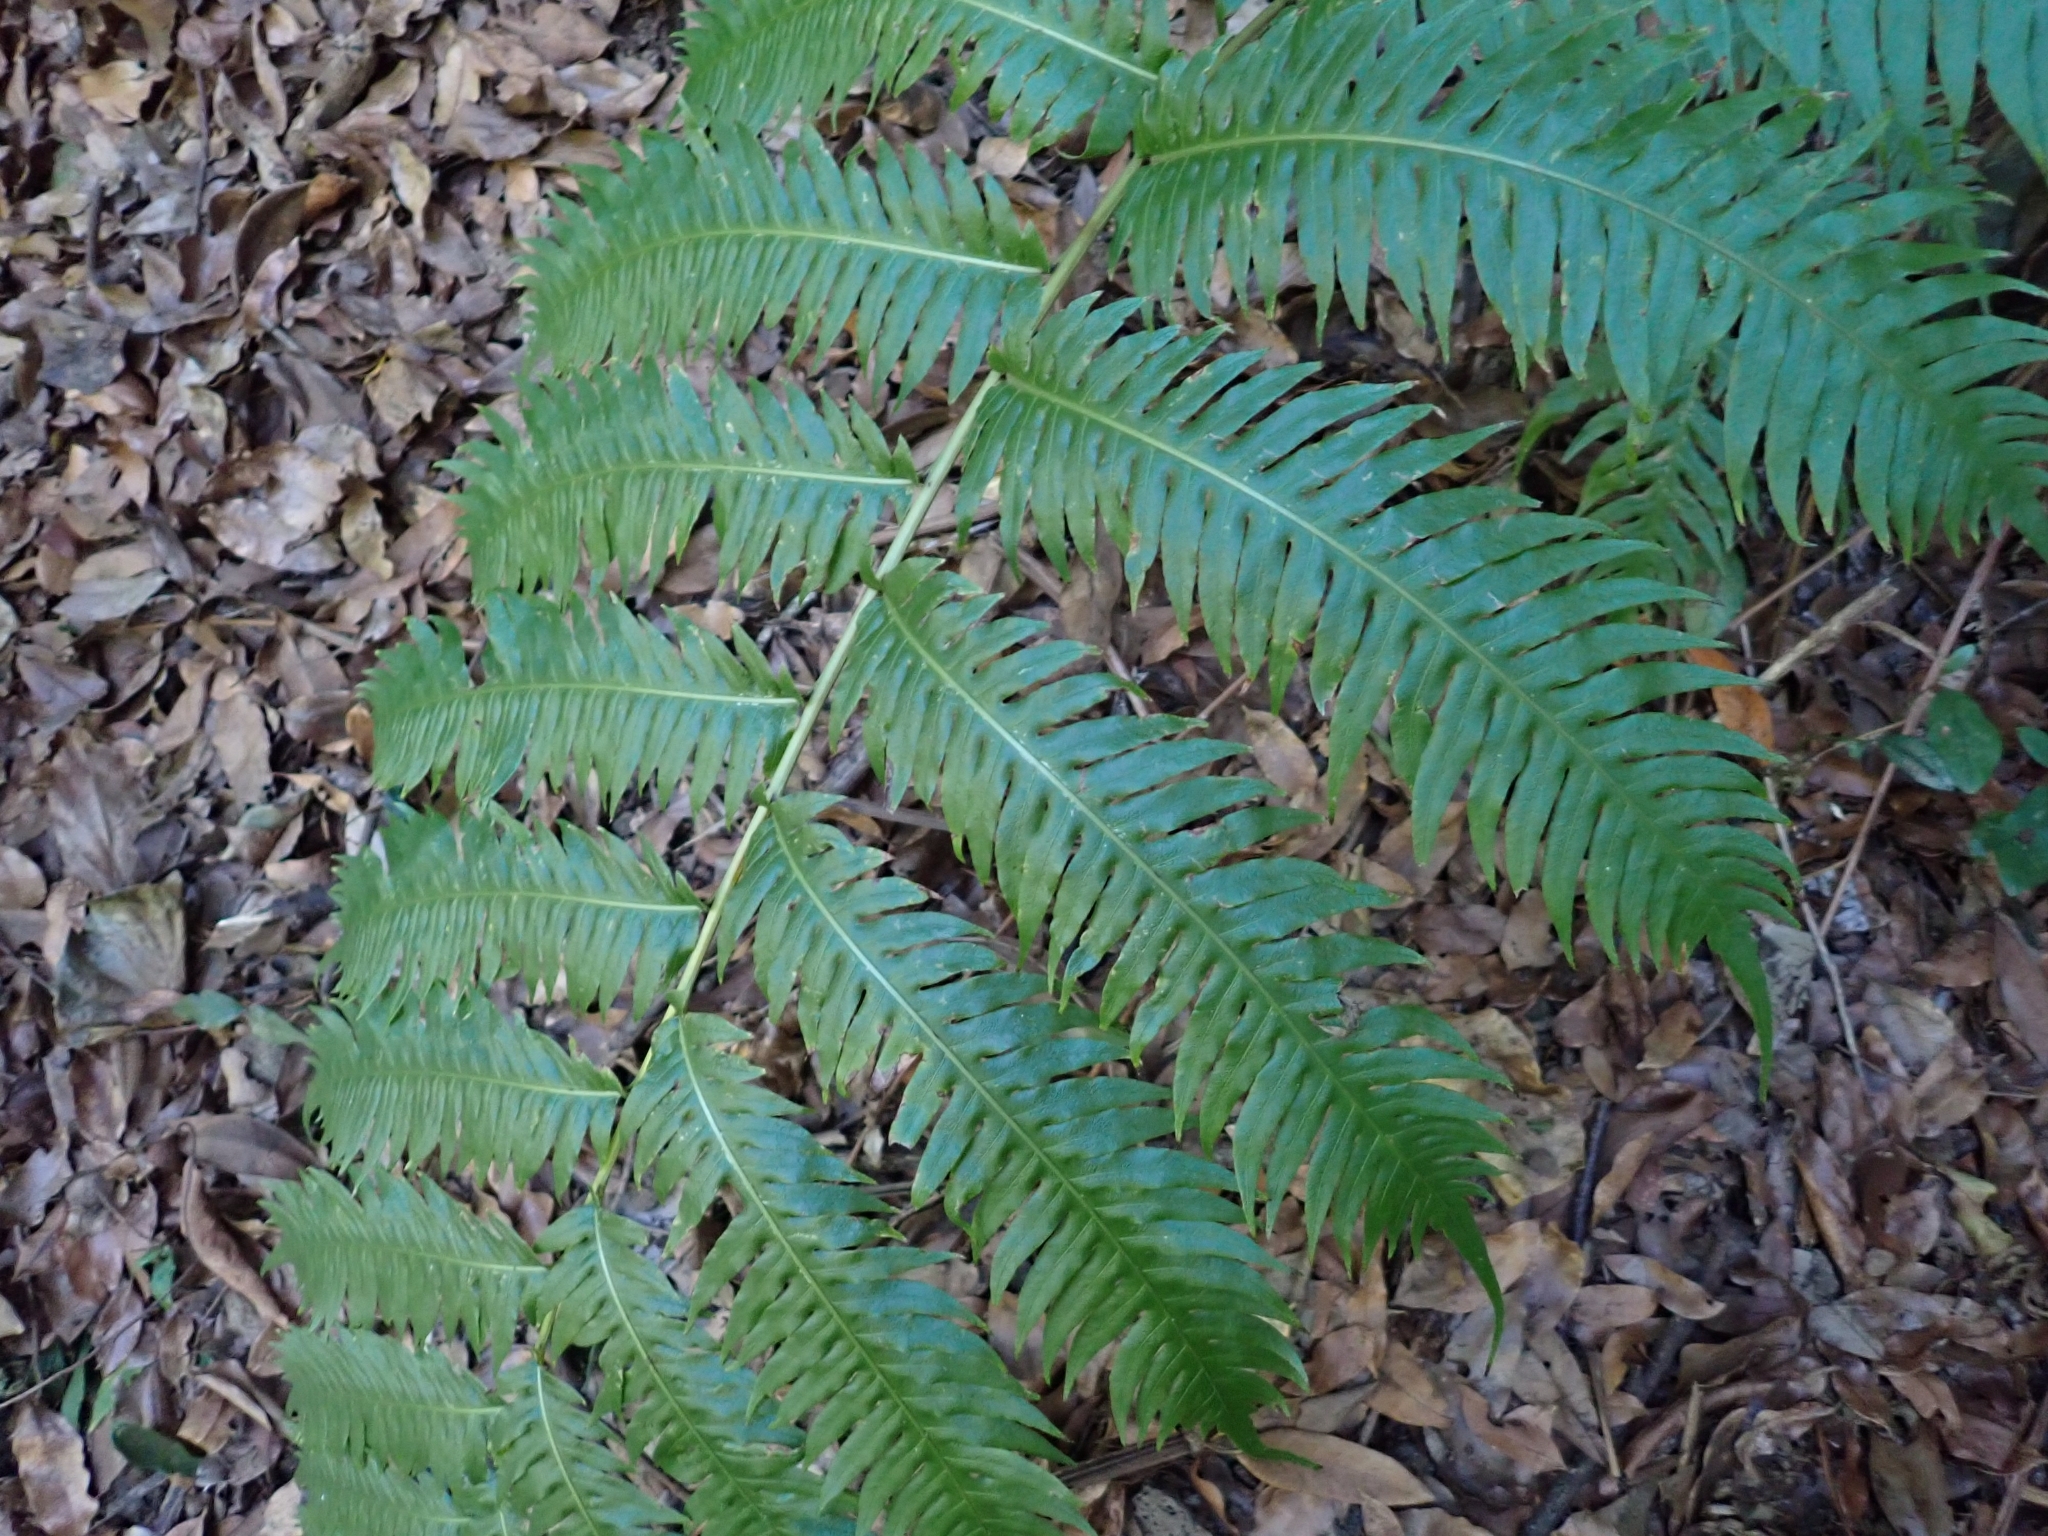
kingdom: Plantae
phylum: Tracheophyta
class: Polypodiopsida
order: Polypodiales
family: Blechnaceae
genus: Woodwardia
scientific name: Woodwardia radicans
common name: Rooting chainfern
